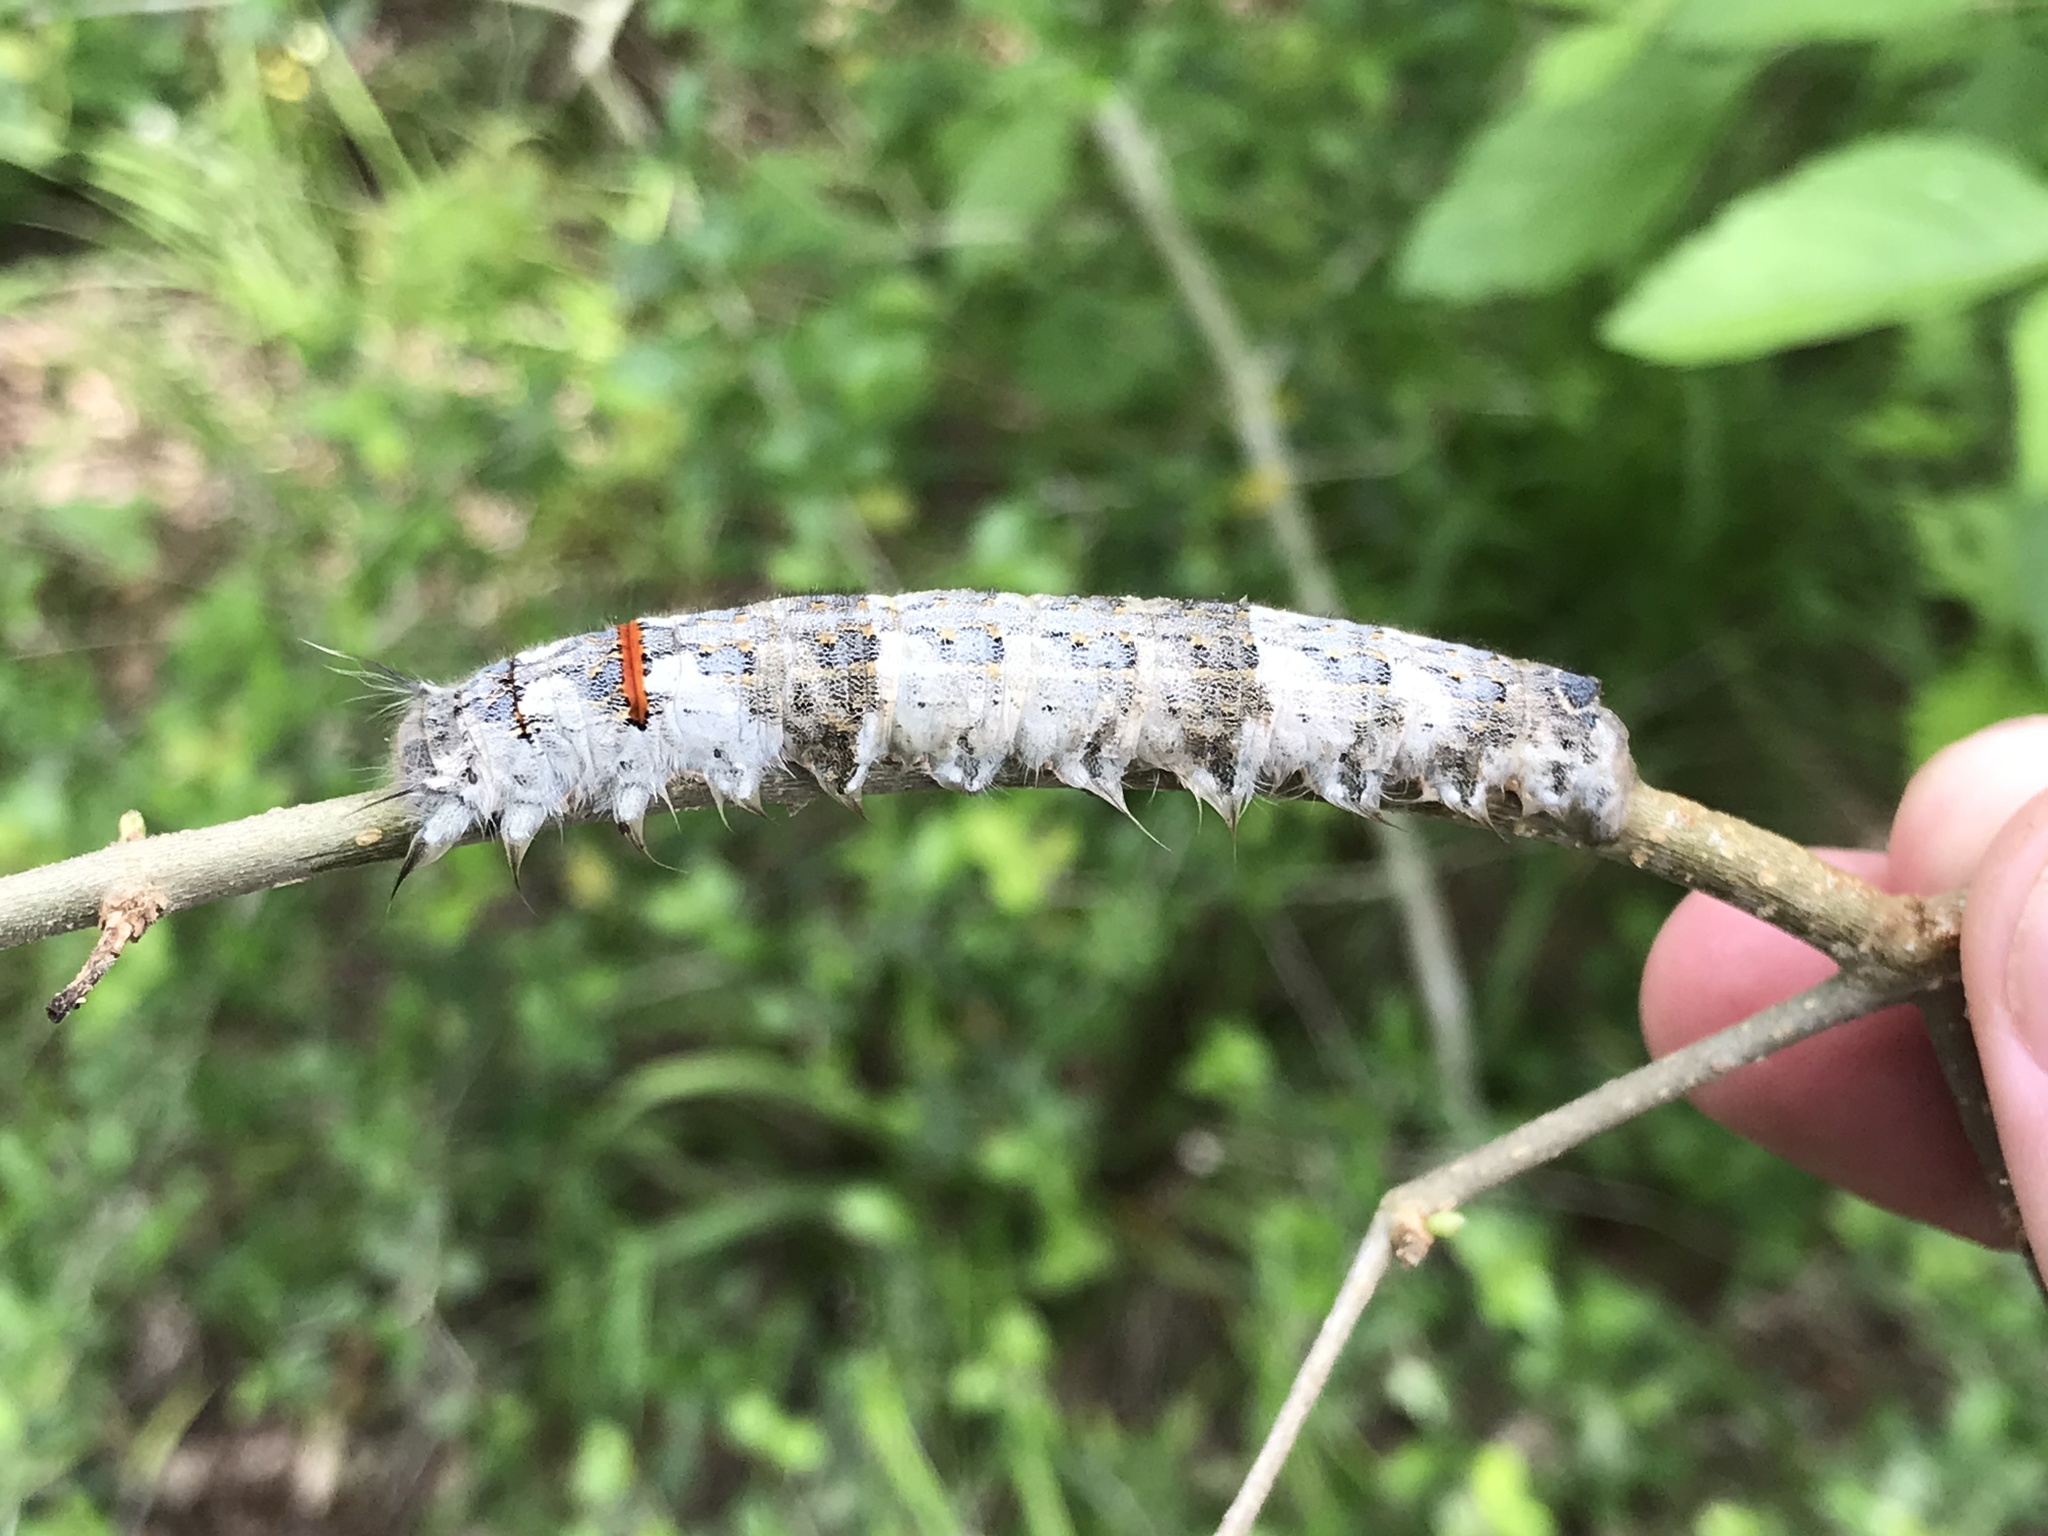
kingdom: Animalia
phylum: Arthropoda
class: Insecta
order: Lepidoptera
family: Lasiocampidae
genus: Phyllodesma
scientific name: Phyllodesma americana
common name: American lappet moth
